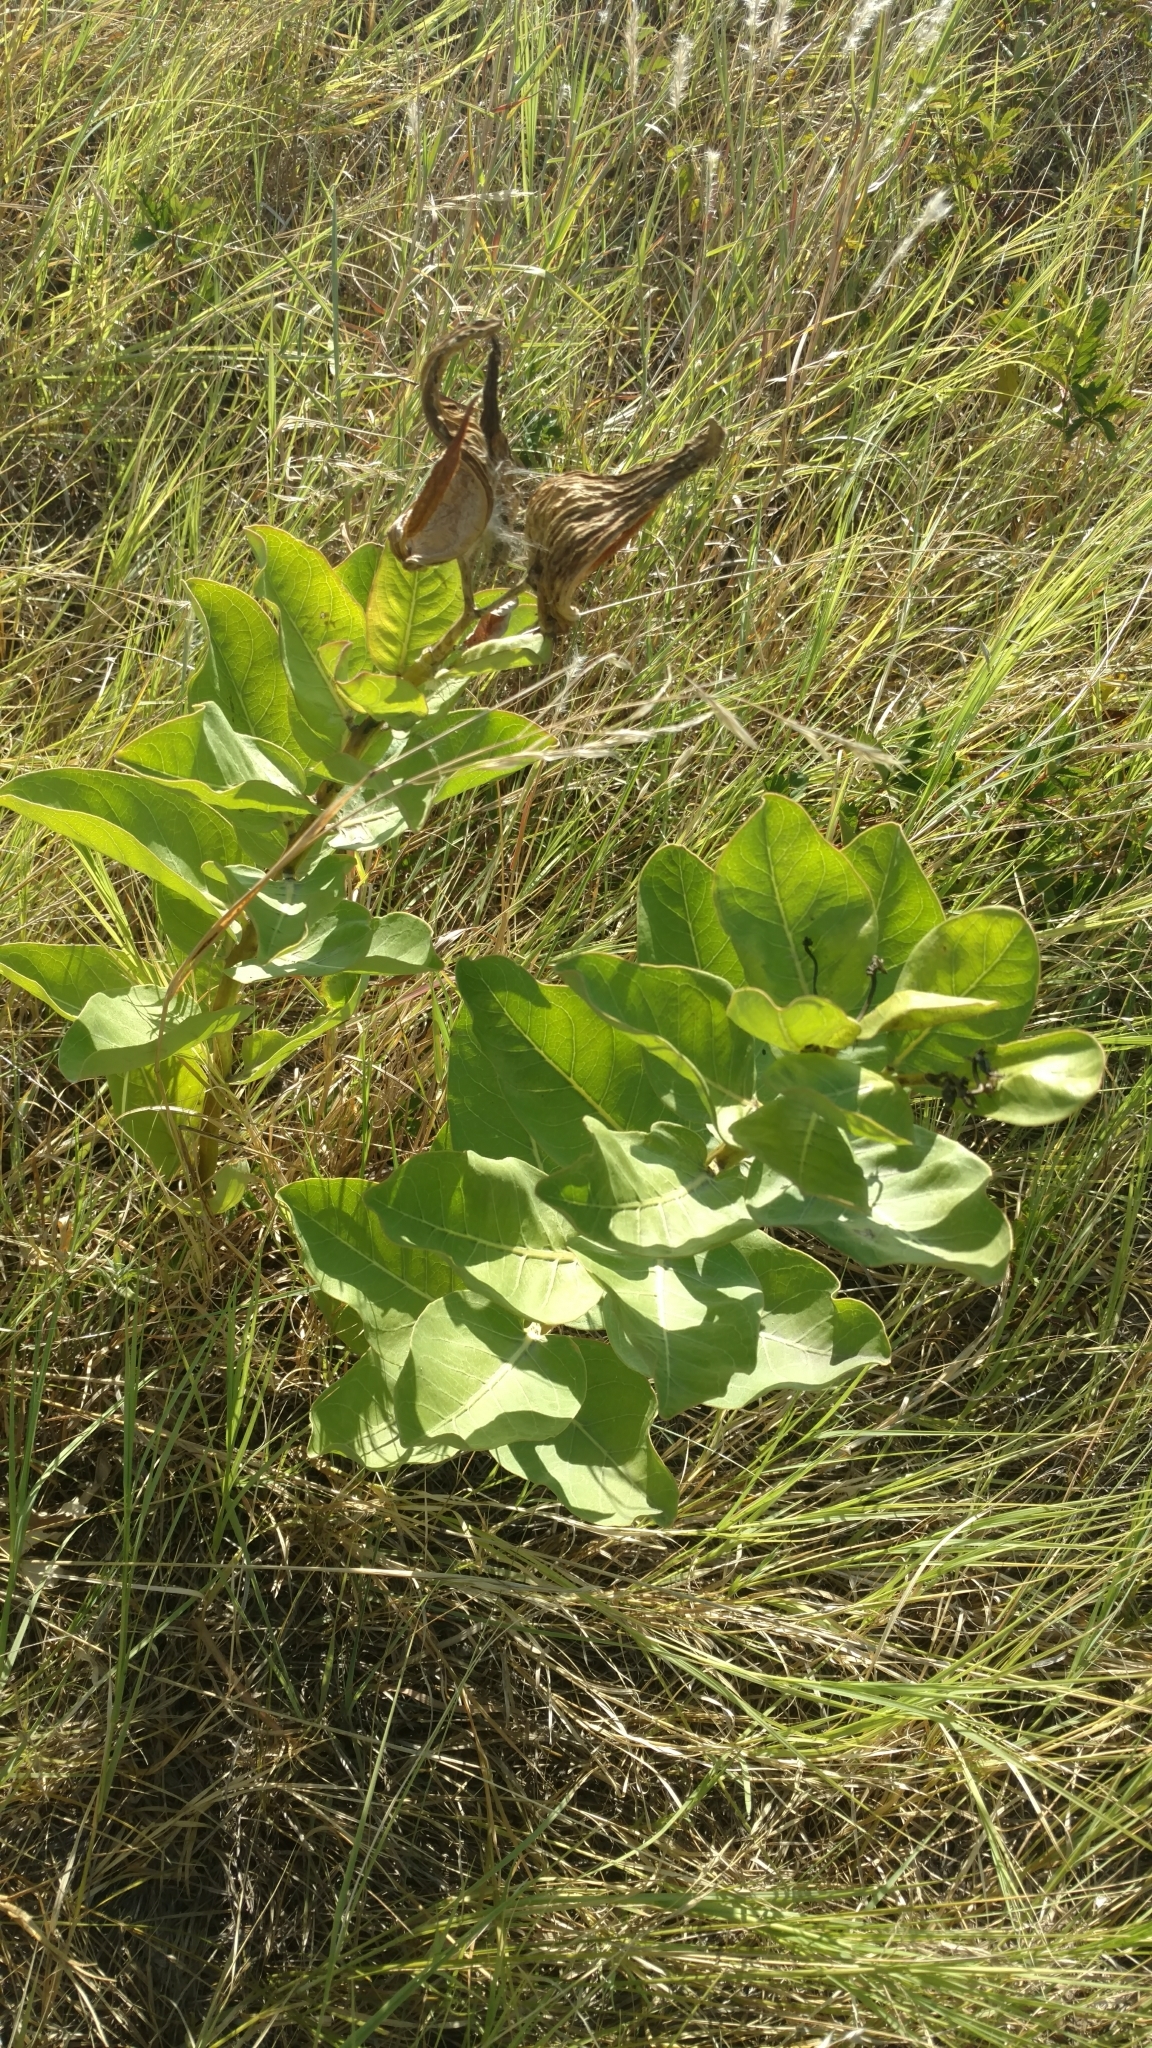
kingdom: Plantae
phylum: Tracheophyta
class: Magnoliopsida
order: Gentianales
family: Apocynaceae
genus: Asclepias
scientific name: Asclepias viridis
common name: Antelope-horns
